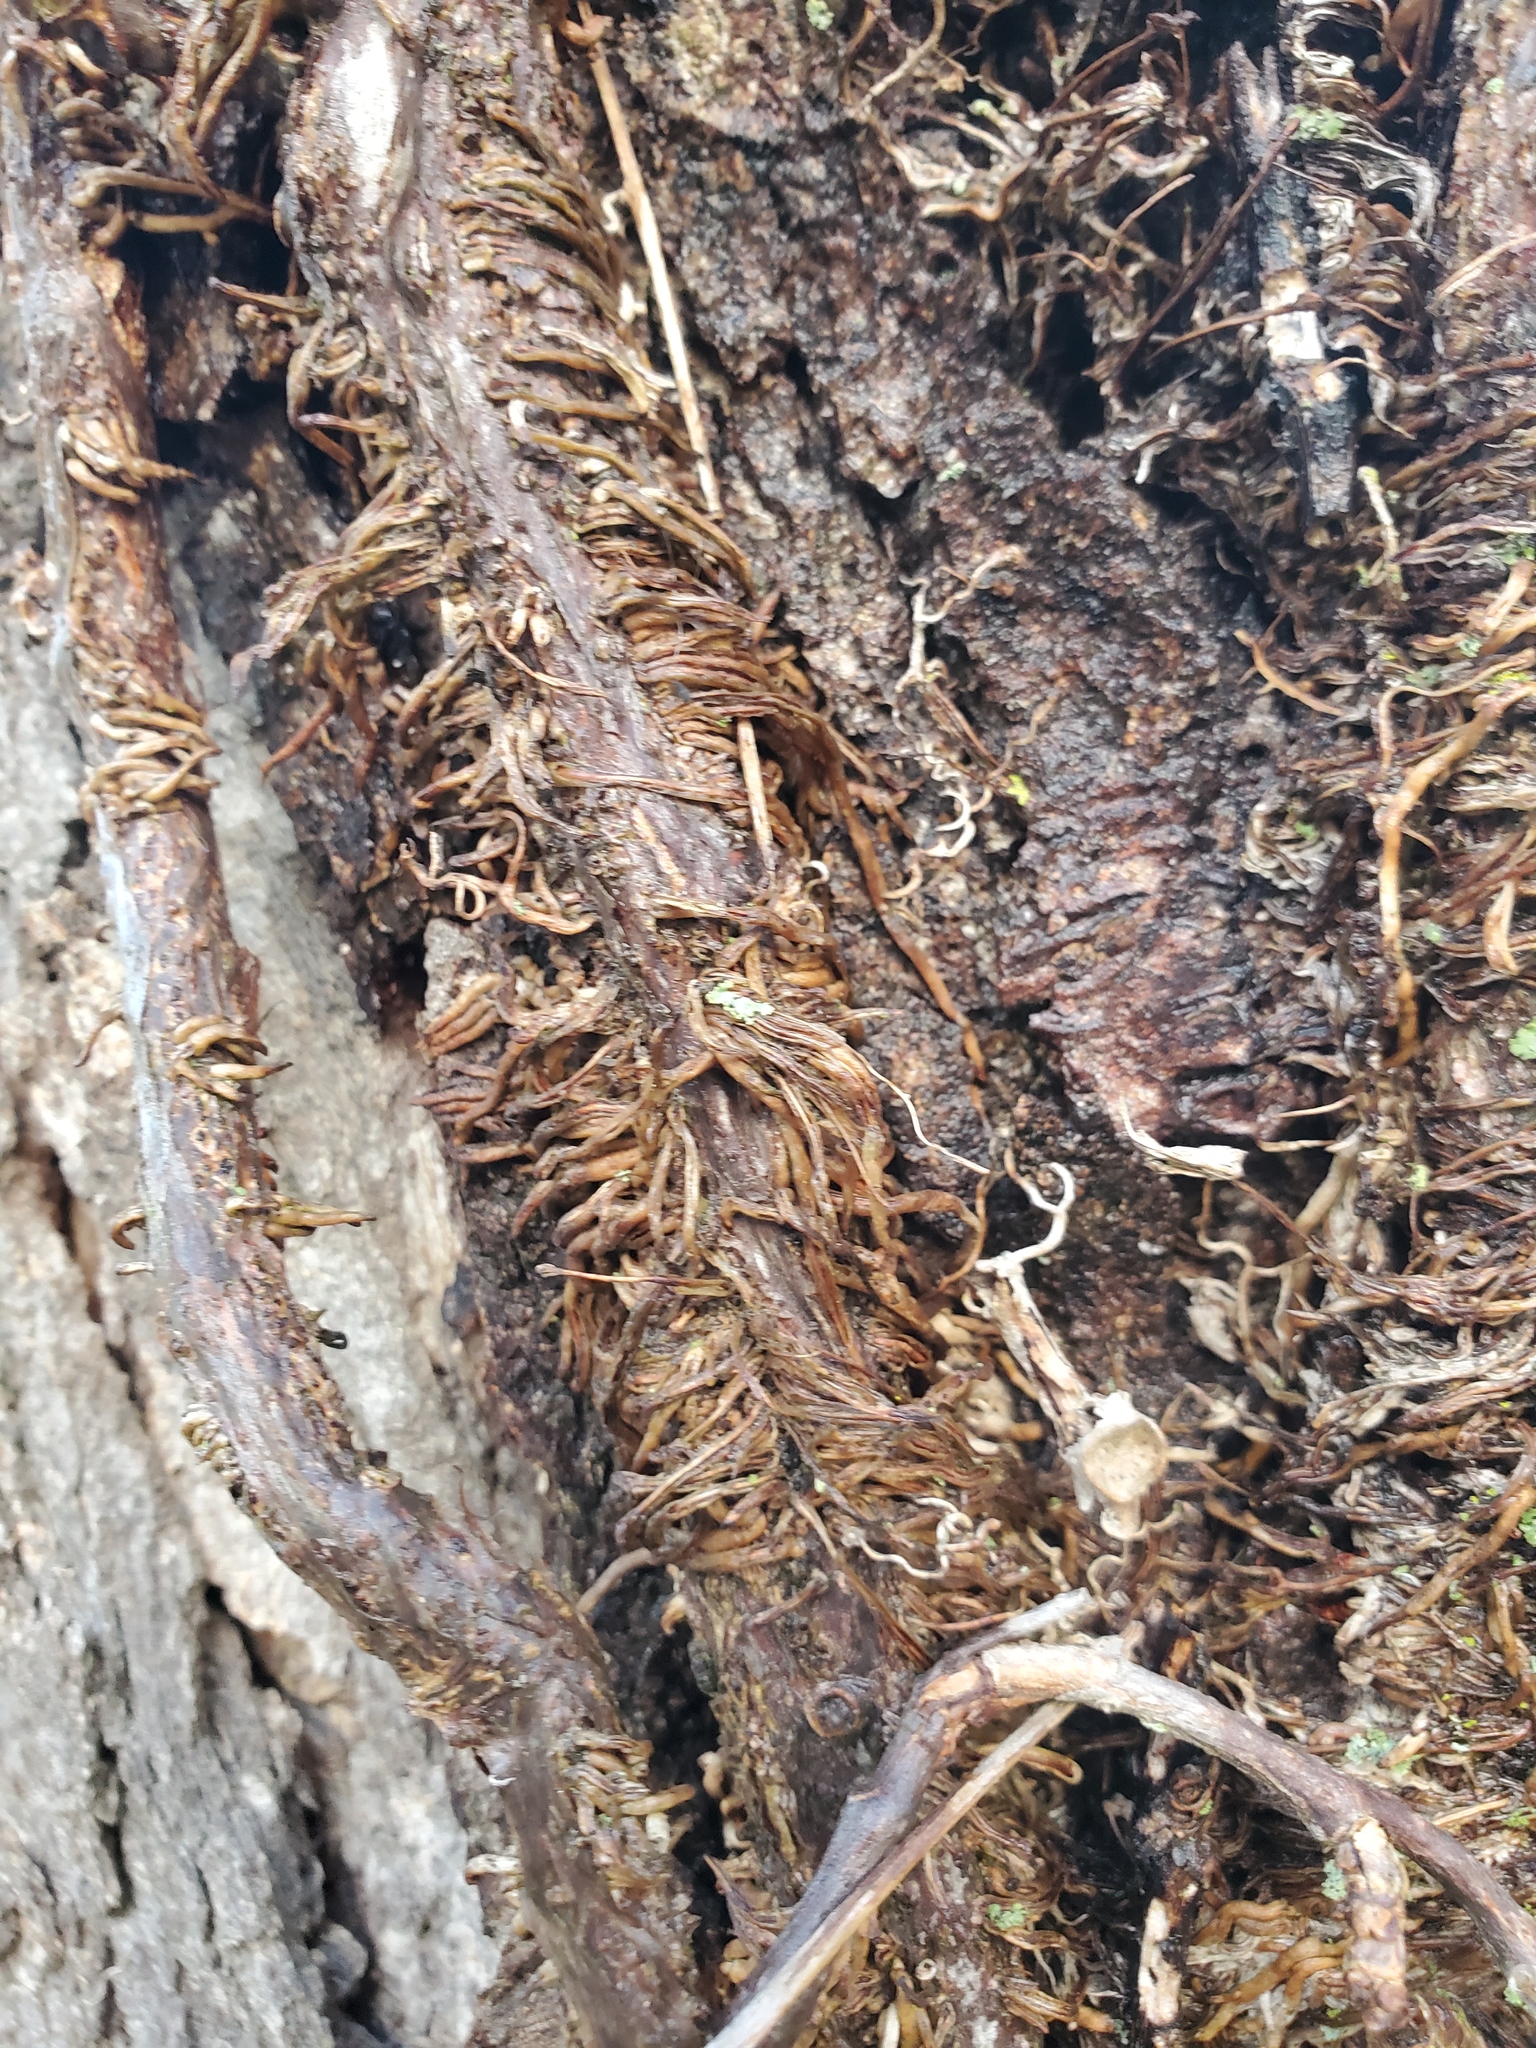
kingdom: Plantae
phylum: Tracheophyta
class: Magnoliopsida
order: Vitales
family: Vitaceae
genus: Parthenocissus
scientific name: Parthenocissus quinquefolia
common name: Virginia-creeper
